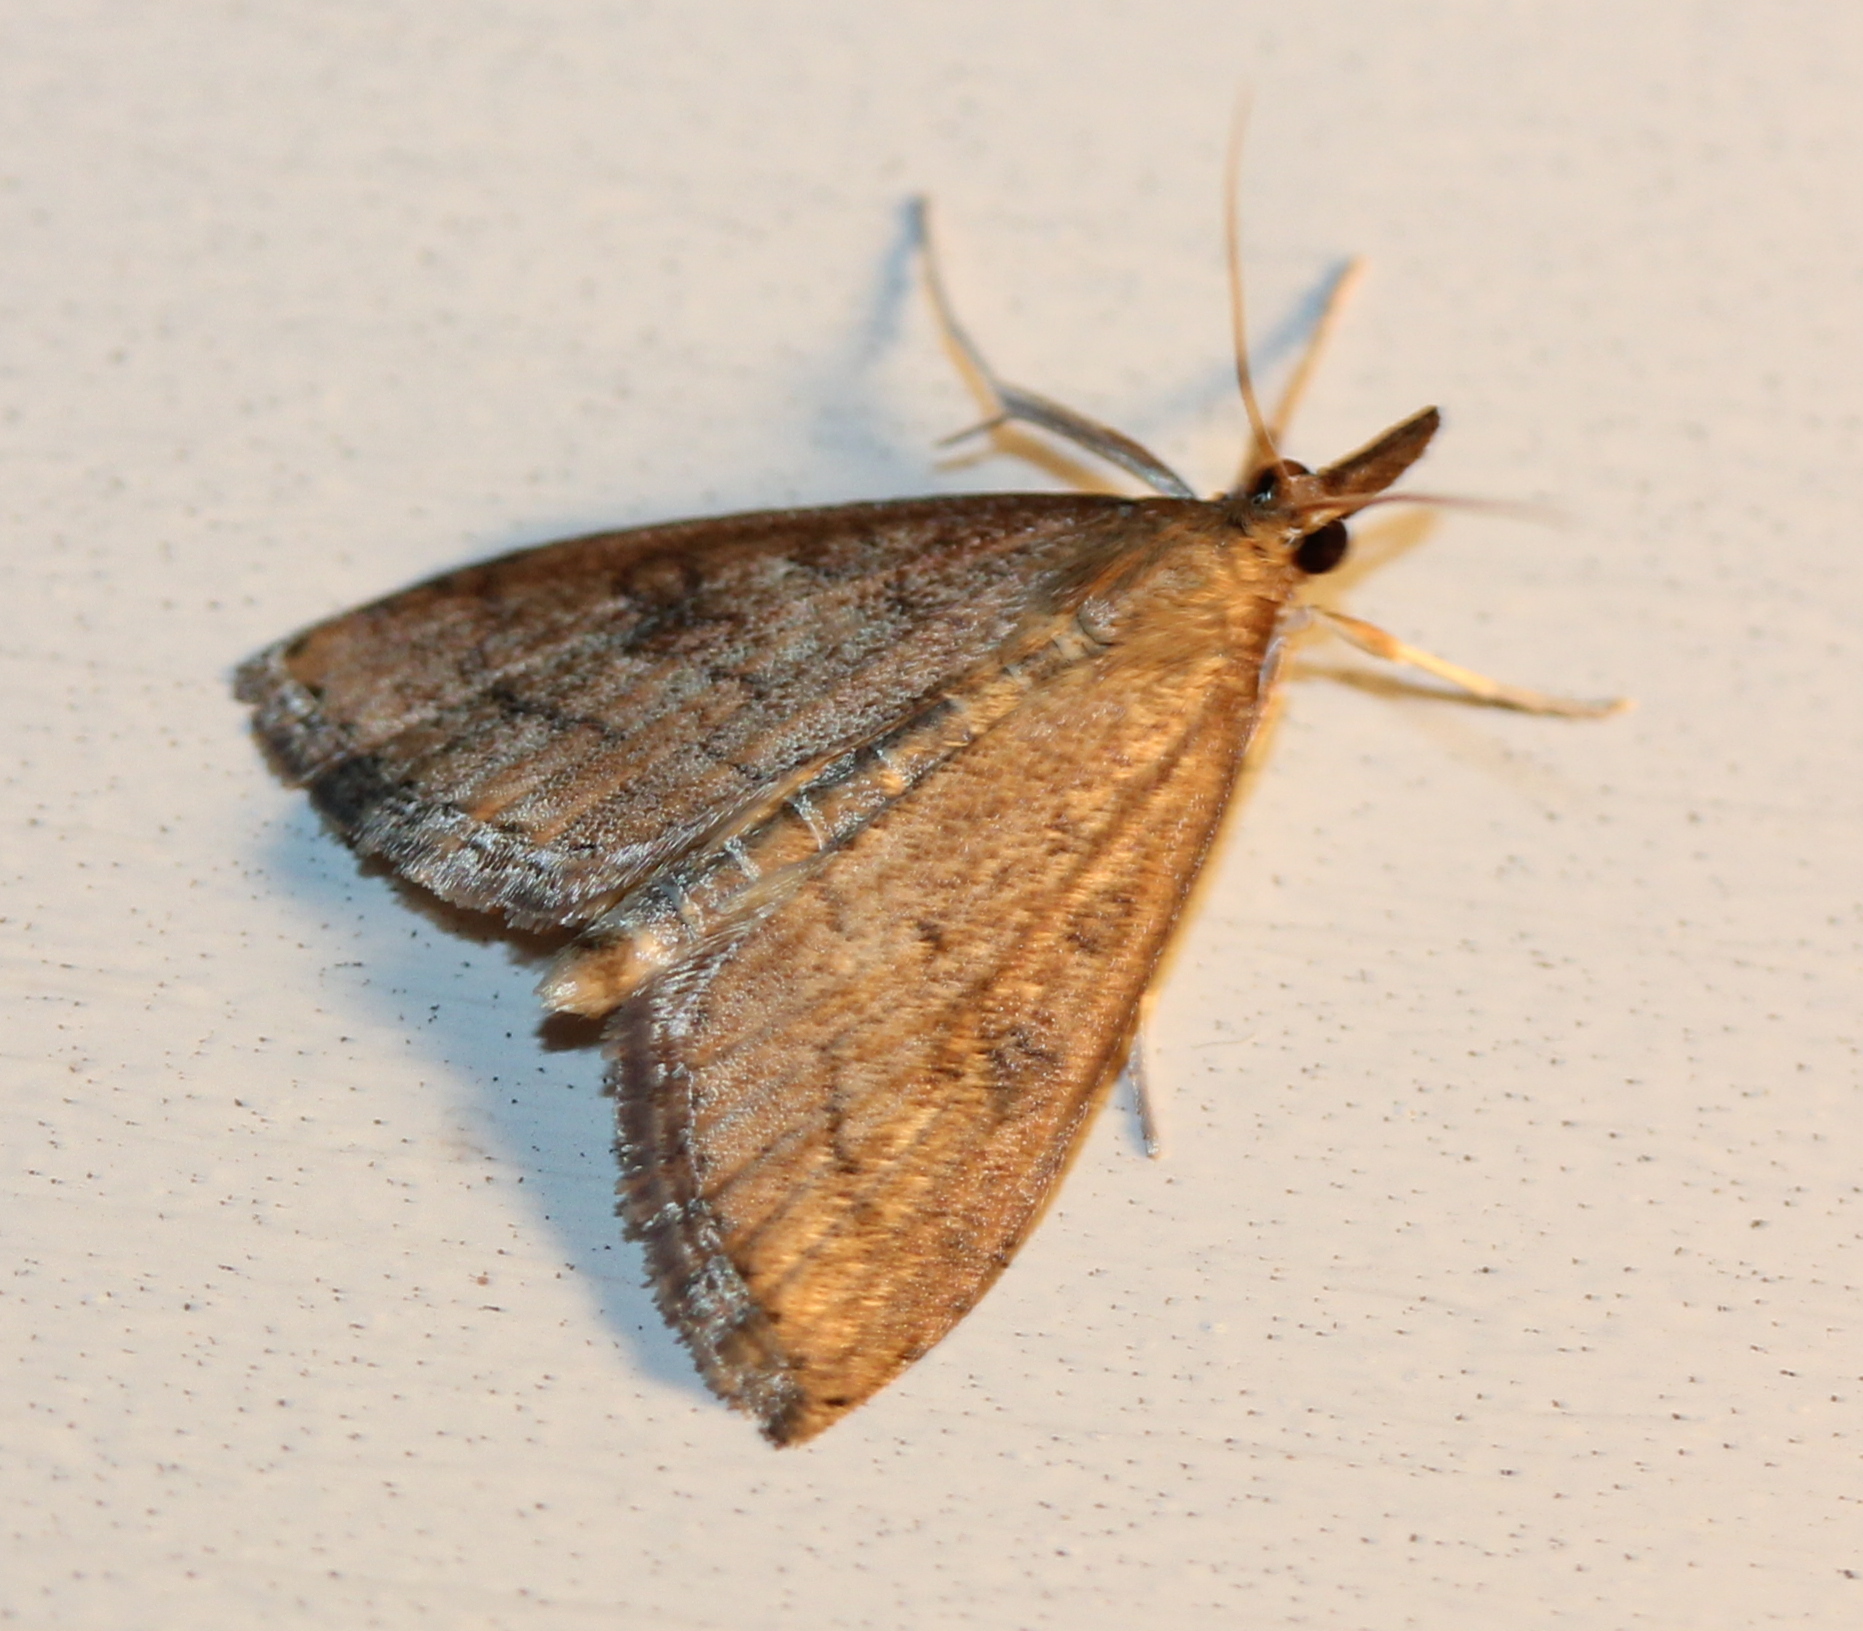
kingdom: Animalia
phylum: Arthropoda
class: Insecta
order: Lepidoptera
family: Crambidae
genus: Udea
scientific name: Udea rubigalis
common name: Celery leaftier moth
